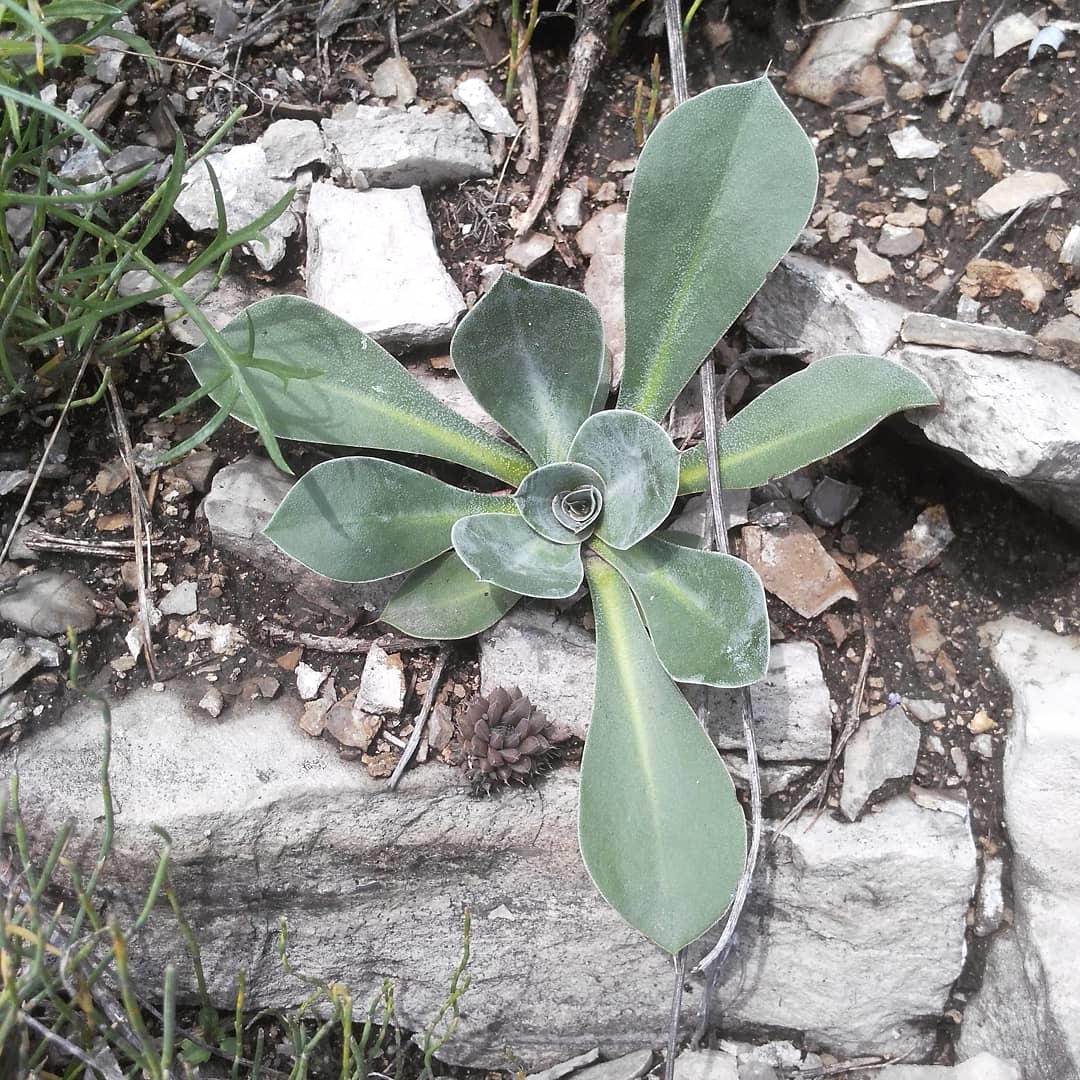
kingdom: Plantae
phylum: Tracheophyta
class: Magnoliopsida
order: Caryophyllales
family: Plumbaginaceae
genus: Goniolimon
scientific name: Goniolimon speciosum
